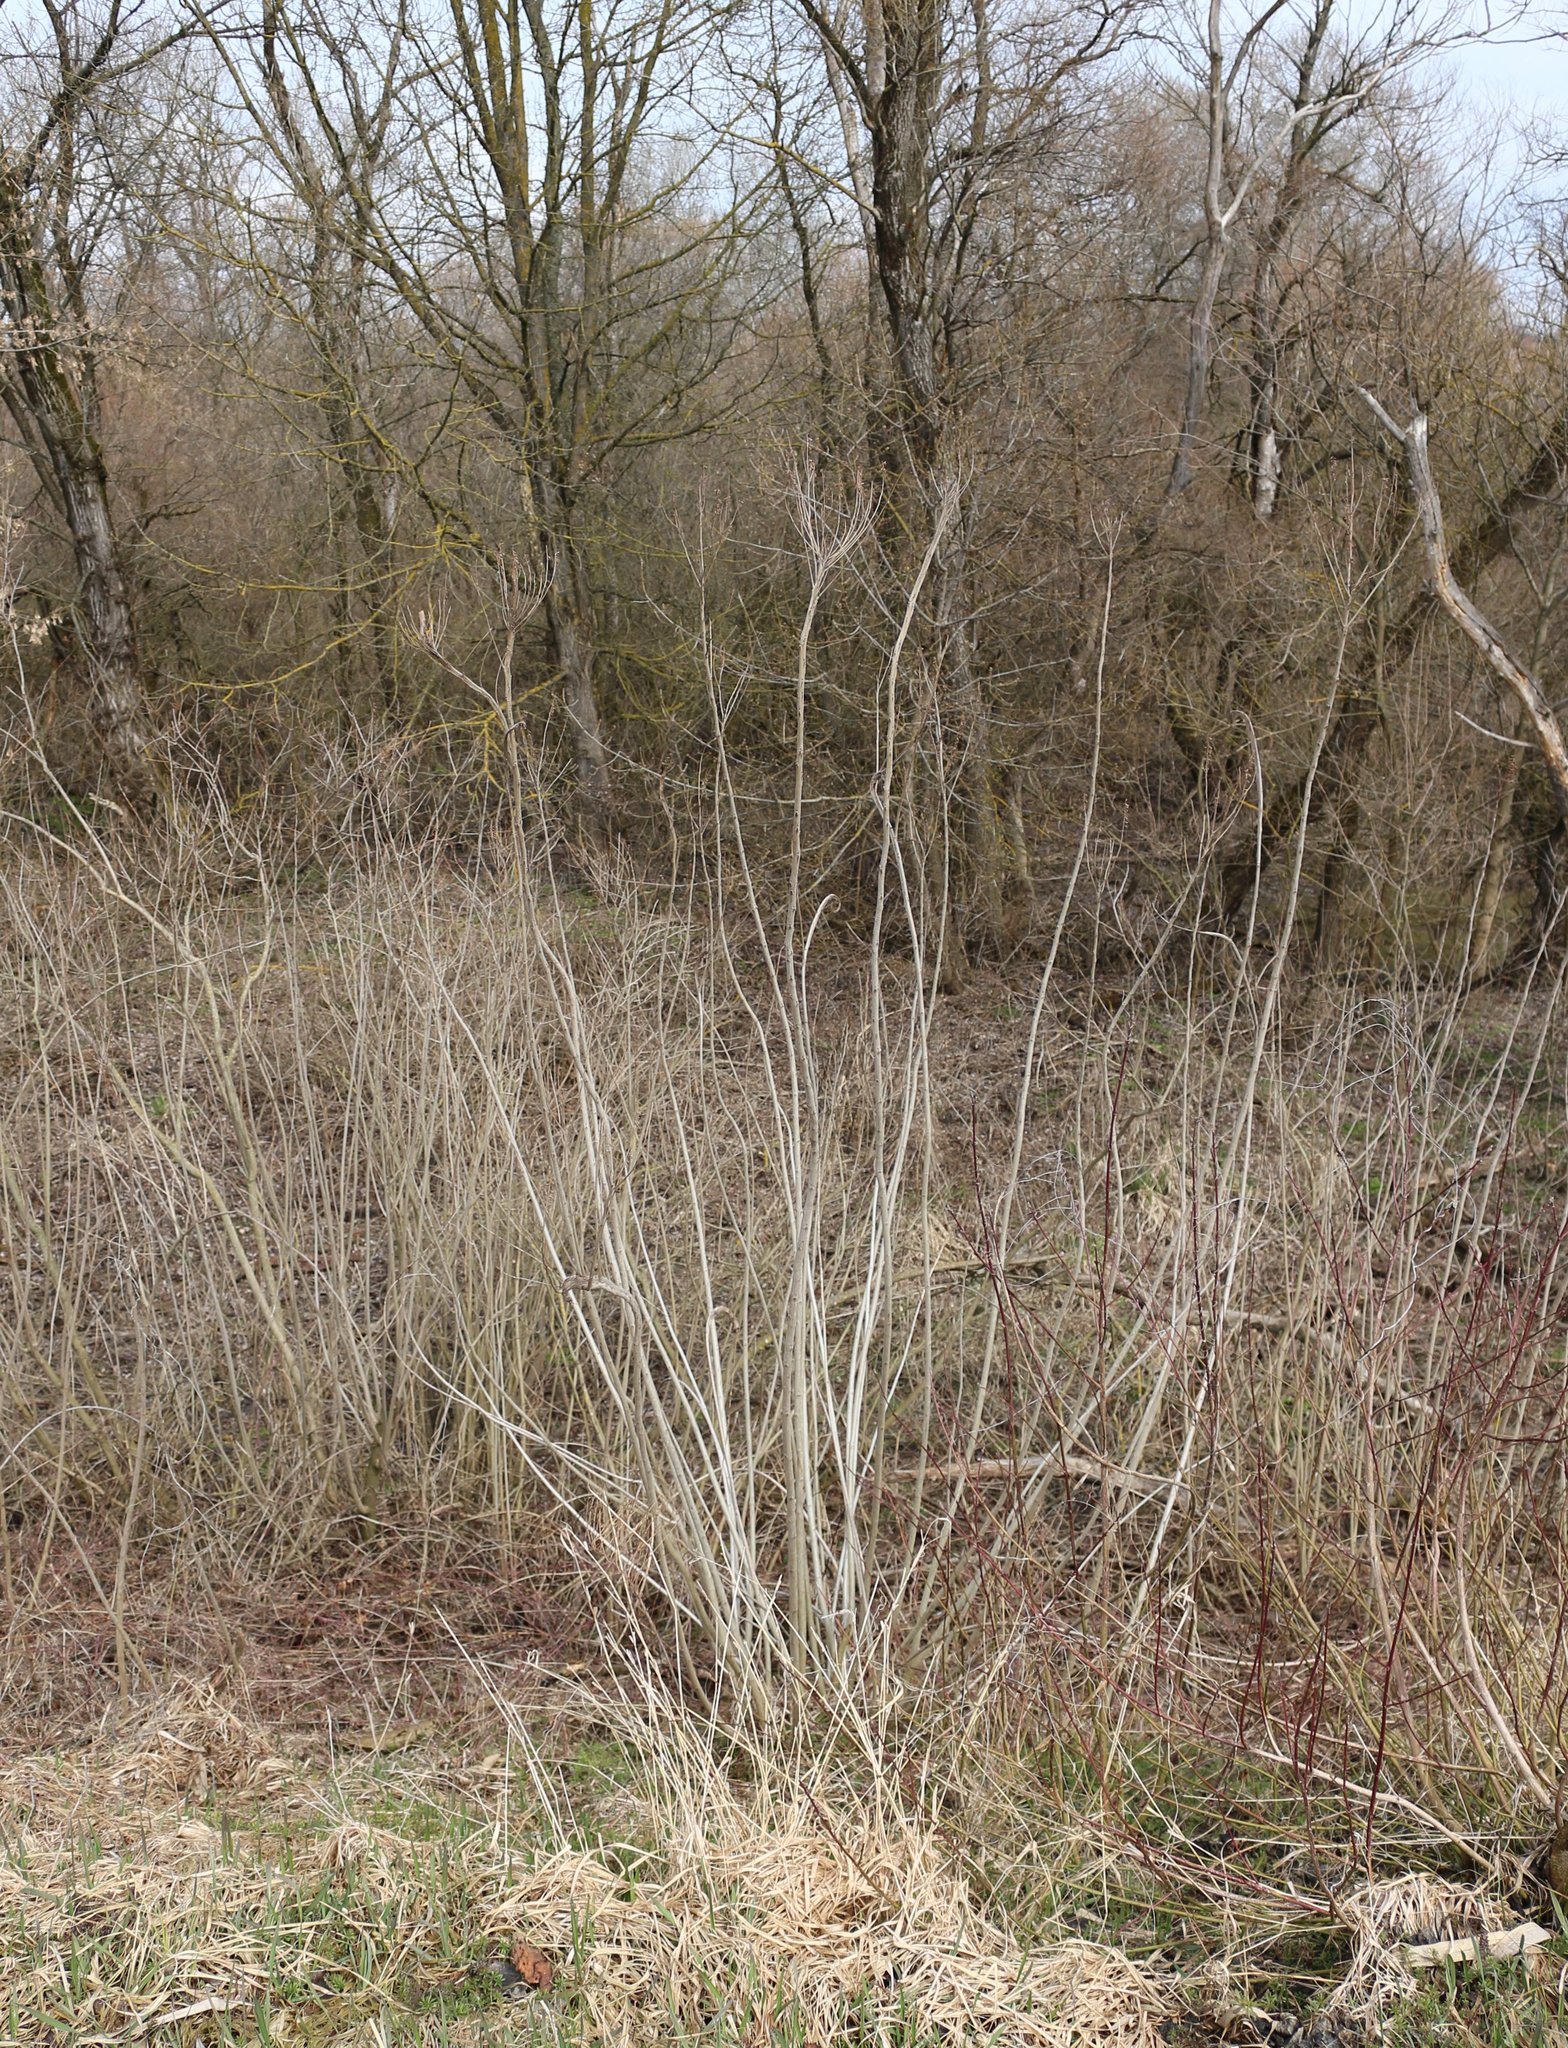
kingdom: Plantae
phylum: Tracheophyta
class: Magnoliopsida
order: Fabales
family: Fabaceae
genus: Amorpha
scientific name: Amorpha fruticosa
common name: False indigo
